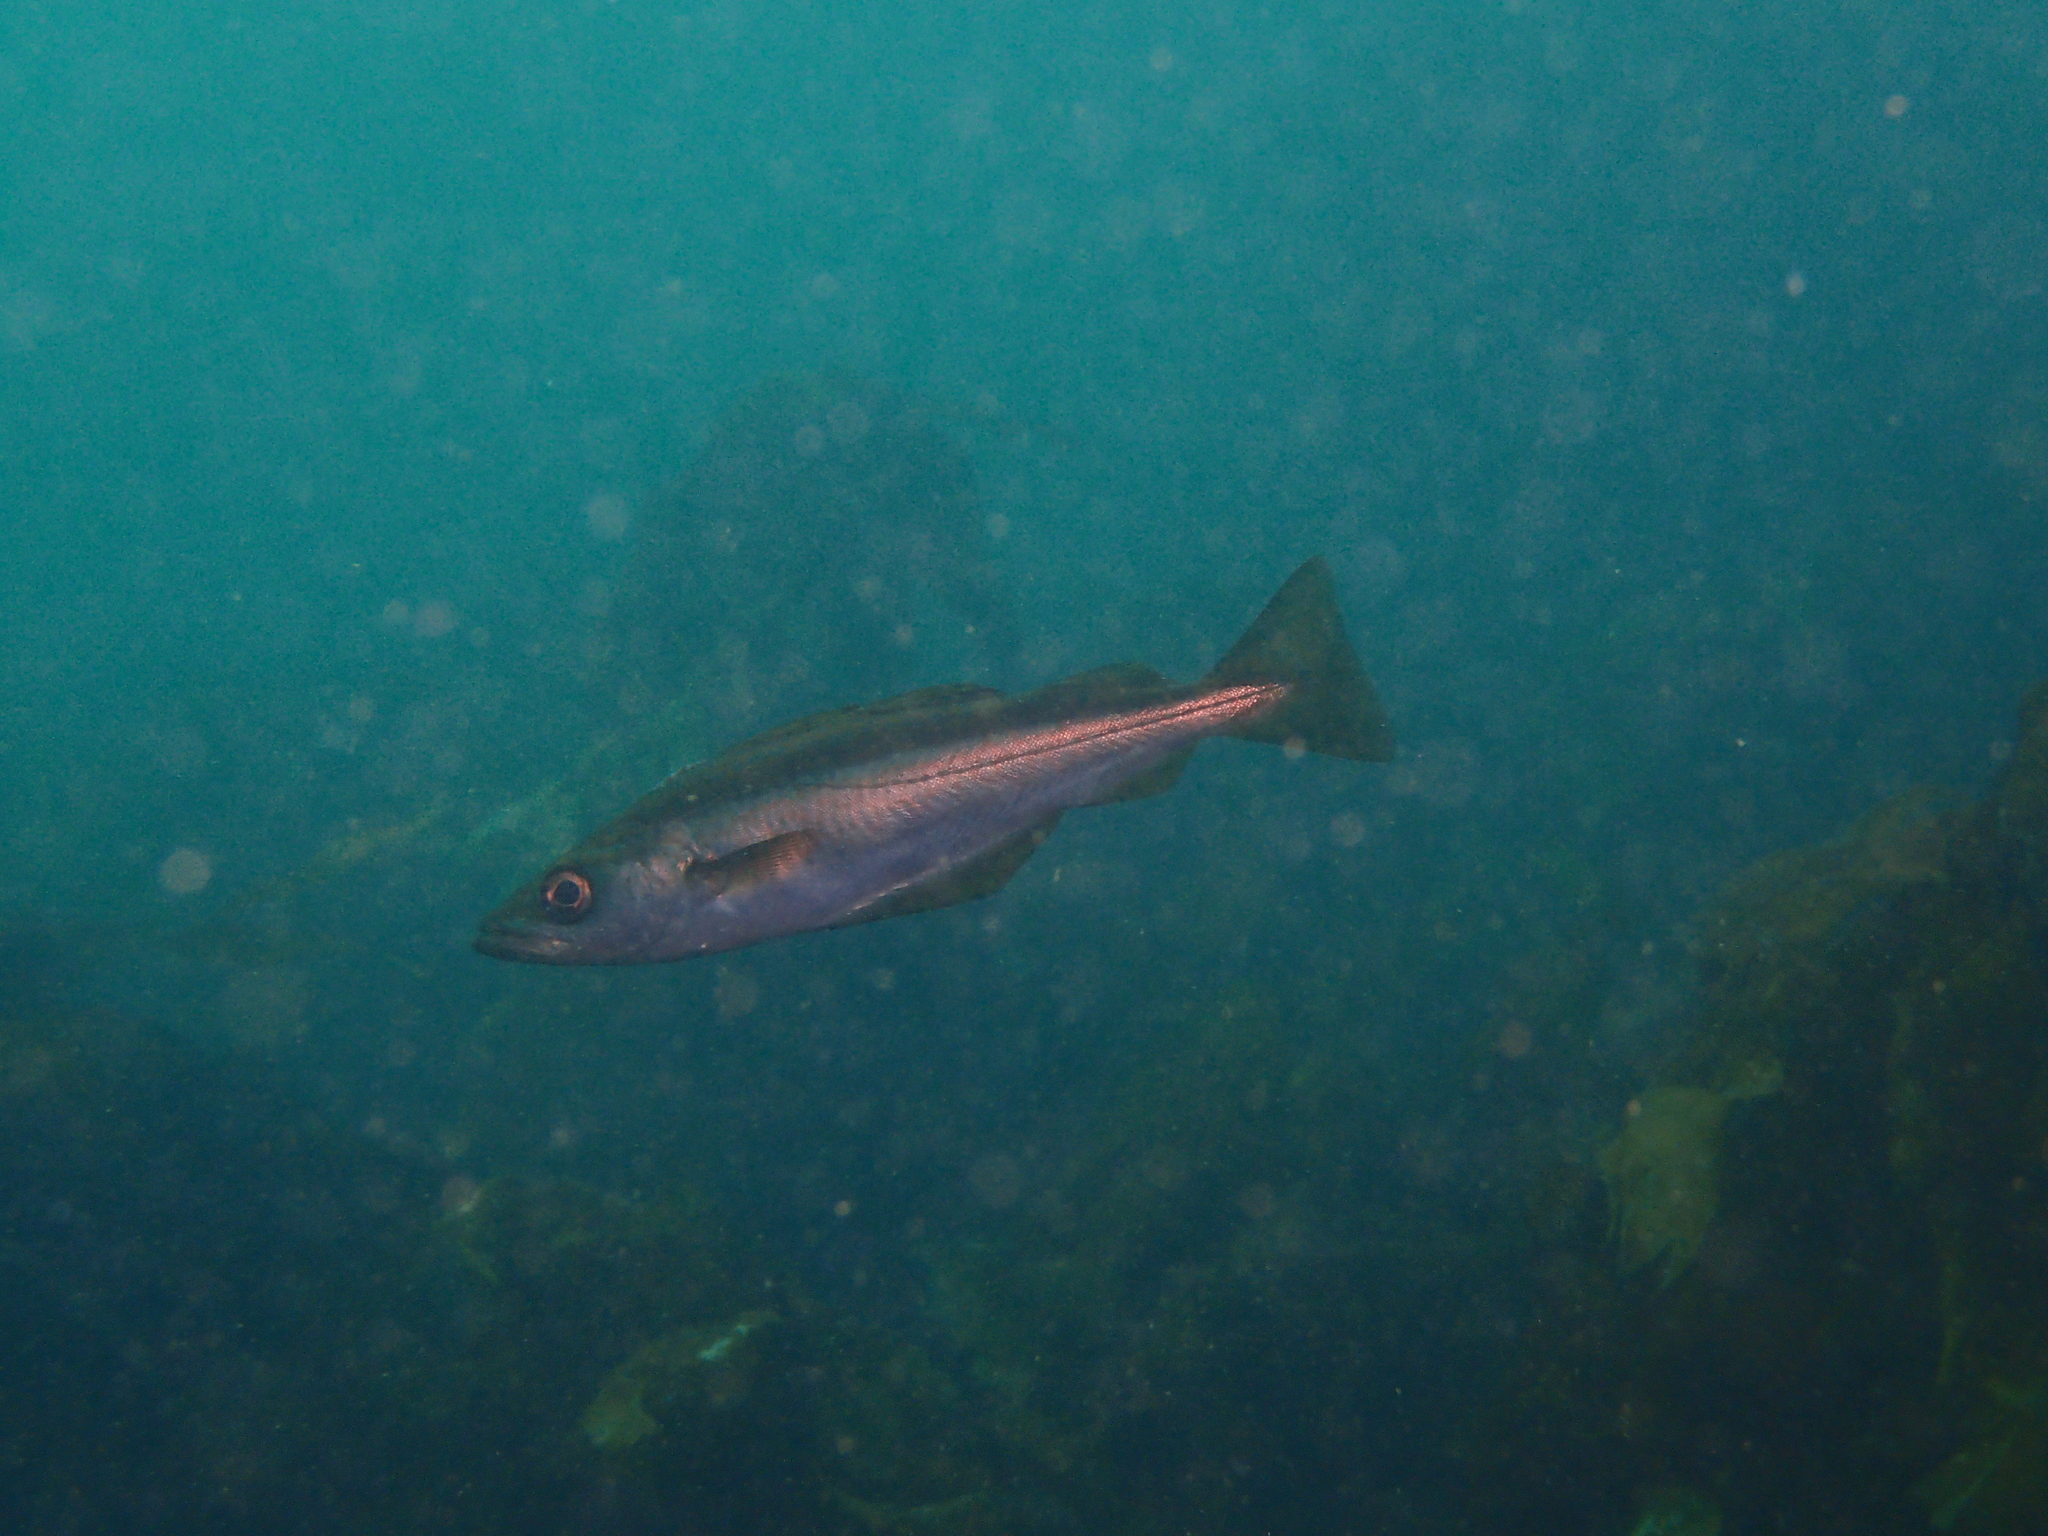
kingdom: Animalia
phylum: Chordata
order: Gadiformes
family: Gadidae
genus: Pollachius
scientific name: Pollachius pollachius
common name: Pollack
